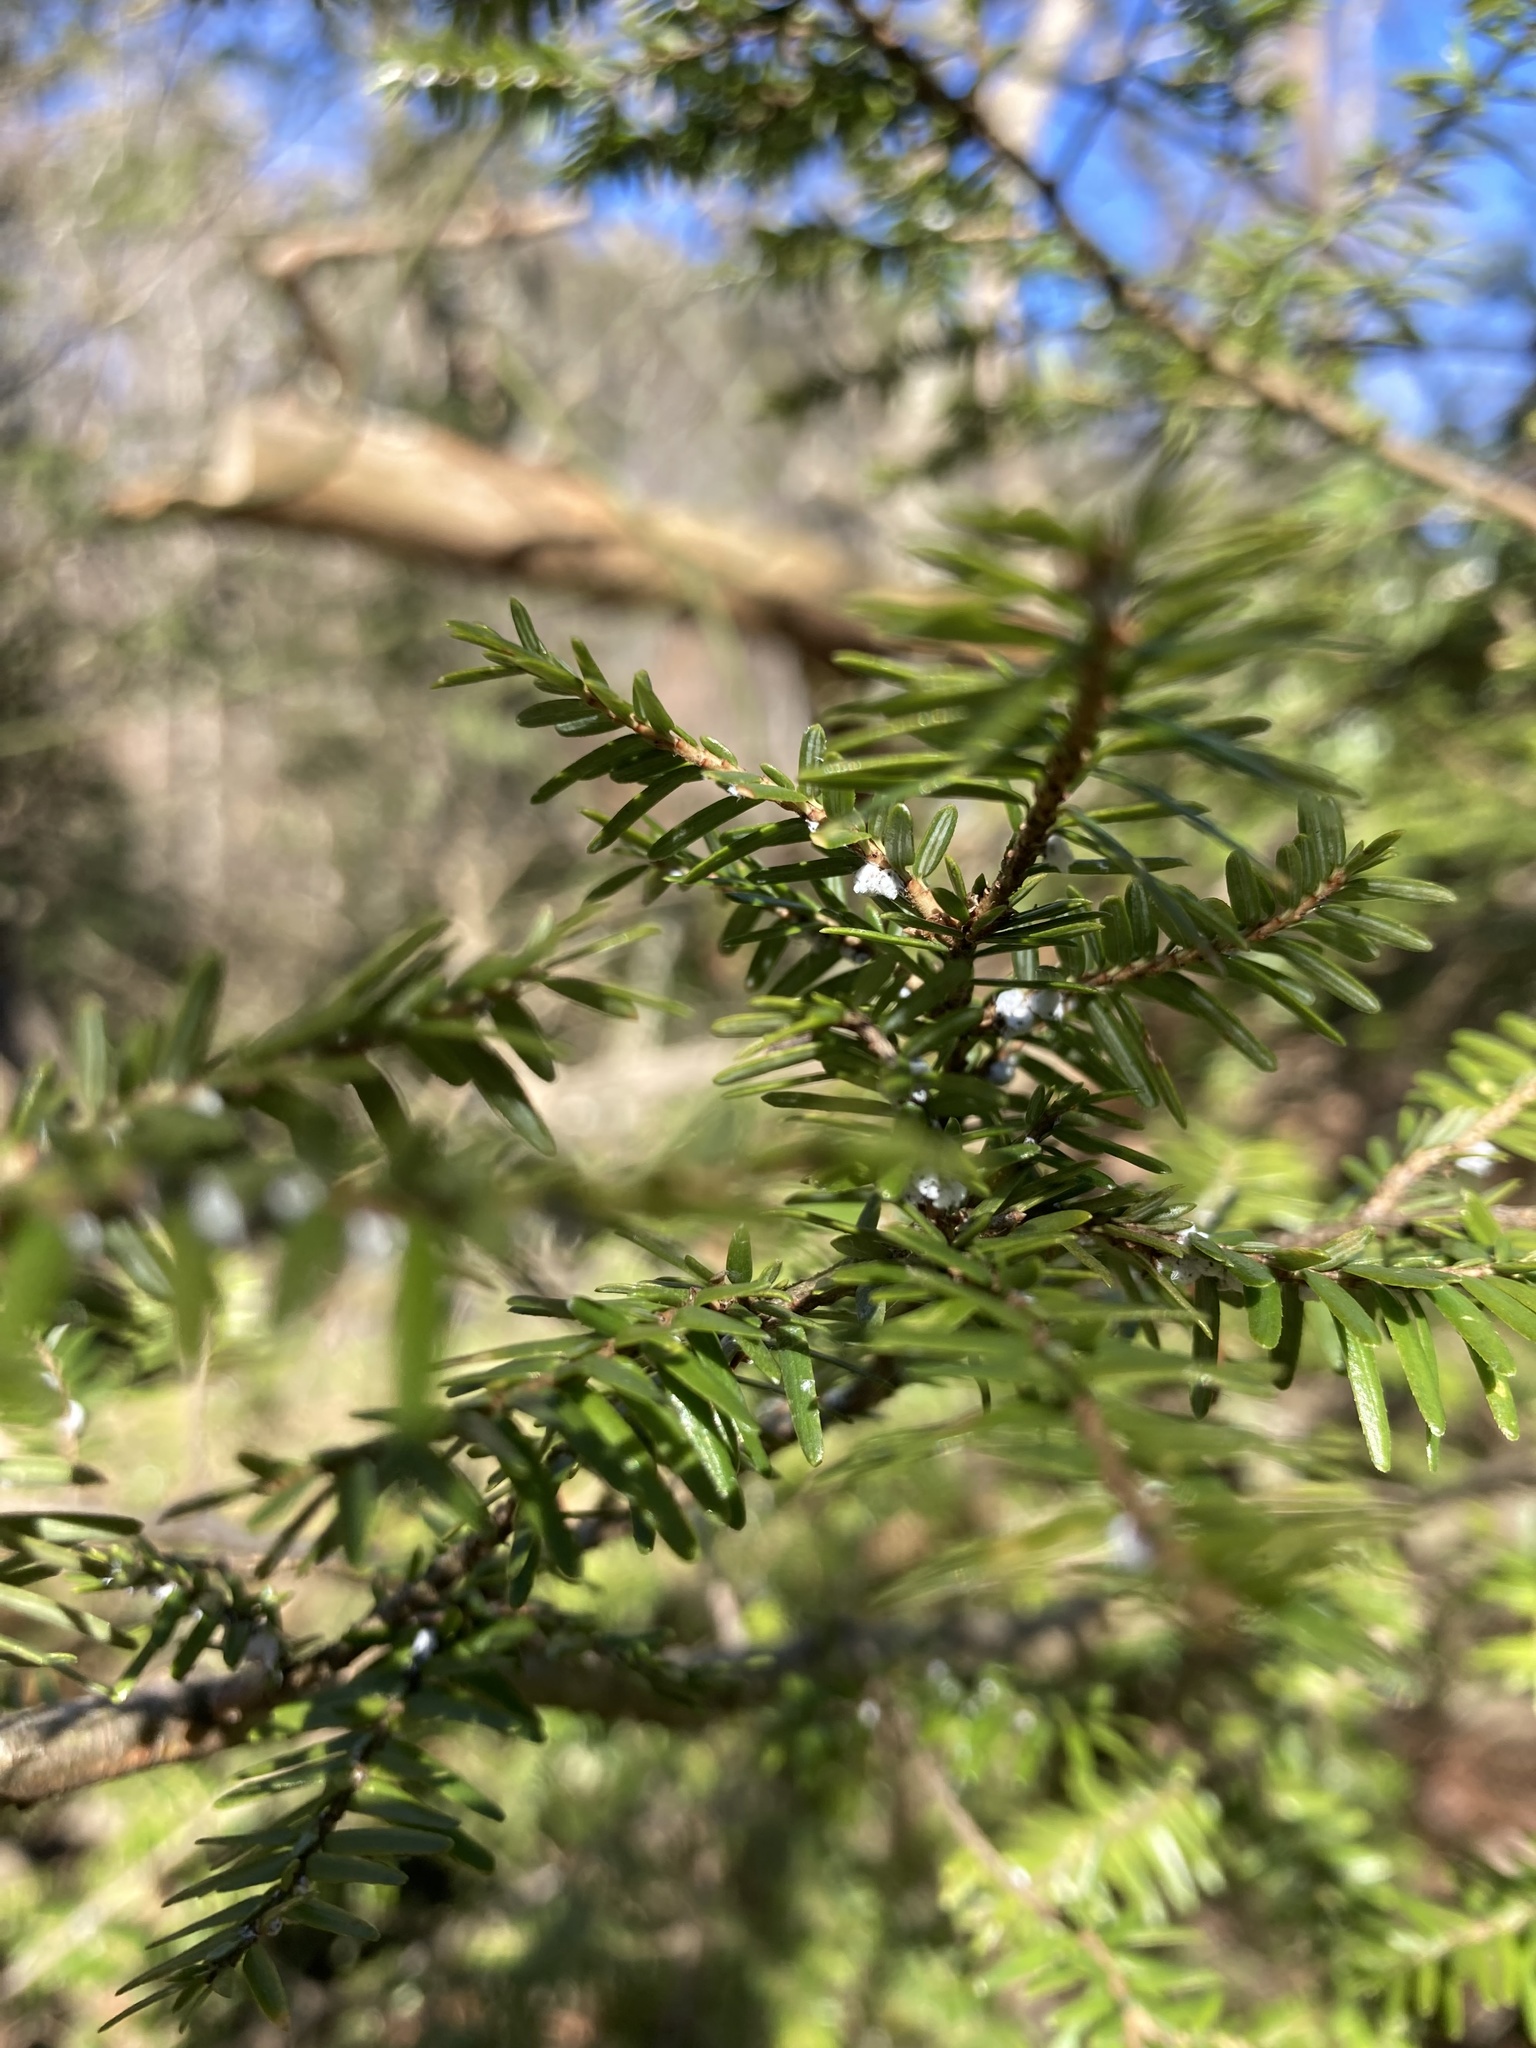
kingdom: Animalia
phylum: Arthropoda
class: Insecta
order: Hemiptera
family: Adelgidae
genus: Adelges
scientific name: Adelges tsugae
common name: Hemlock woolly adelgid
